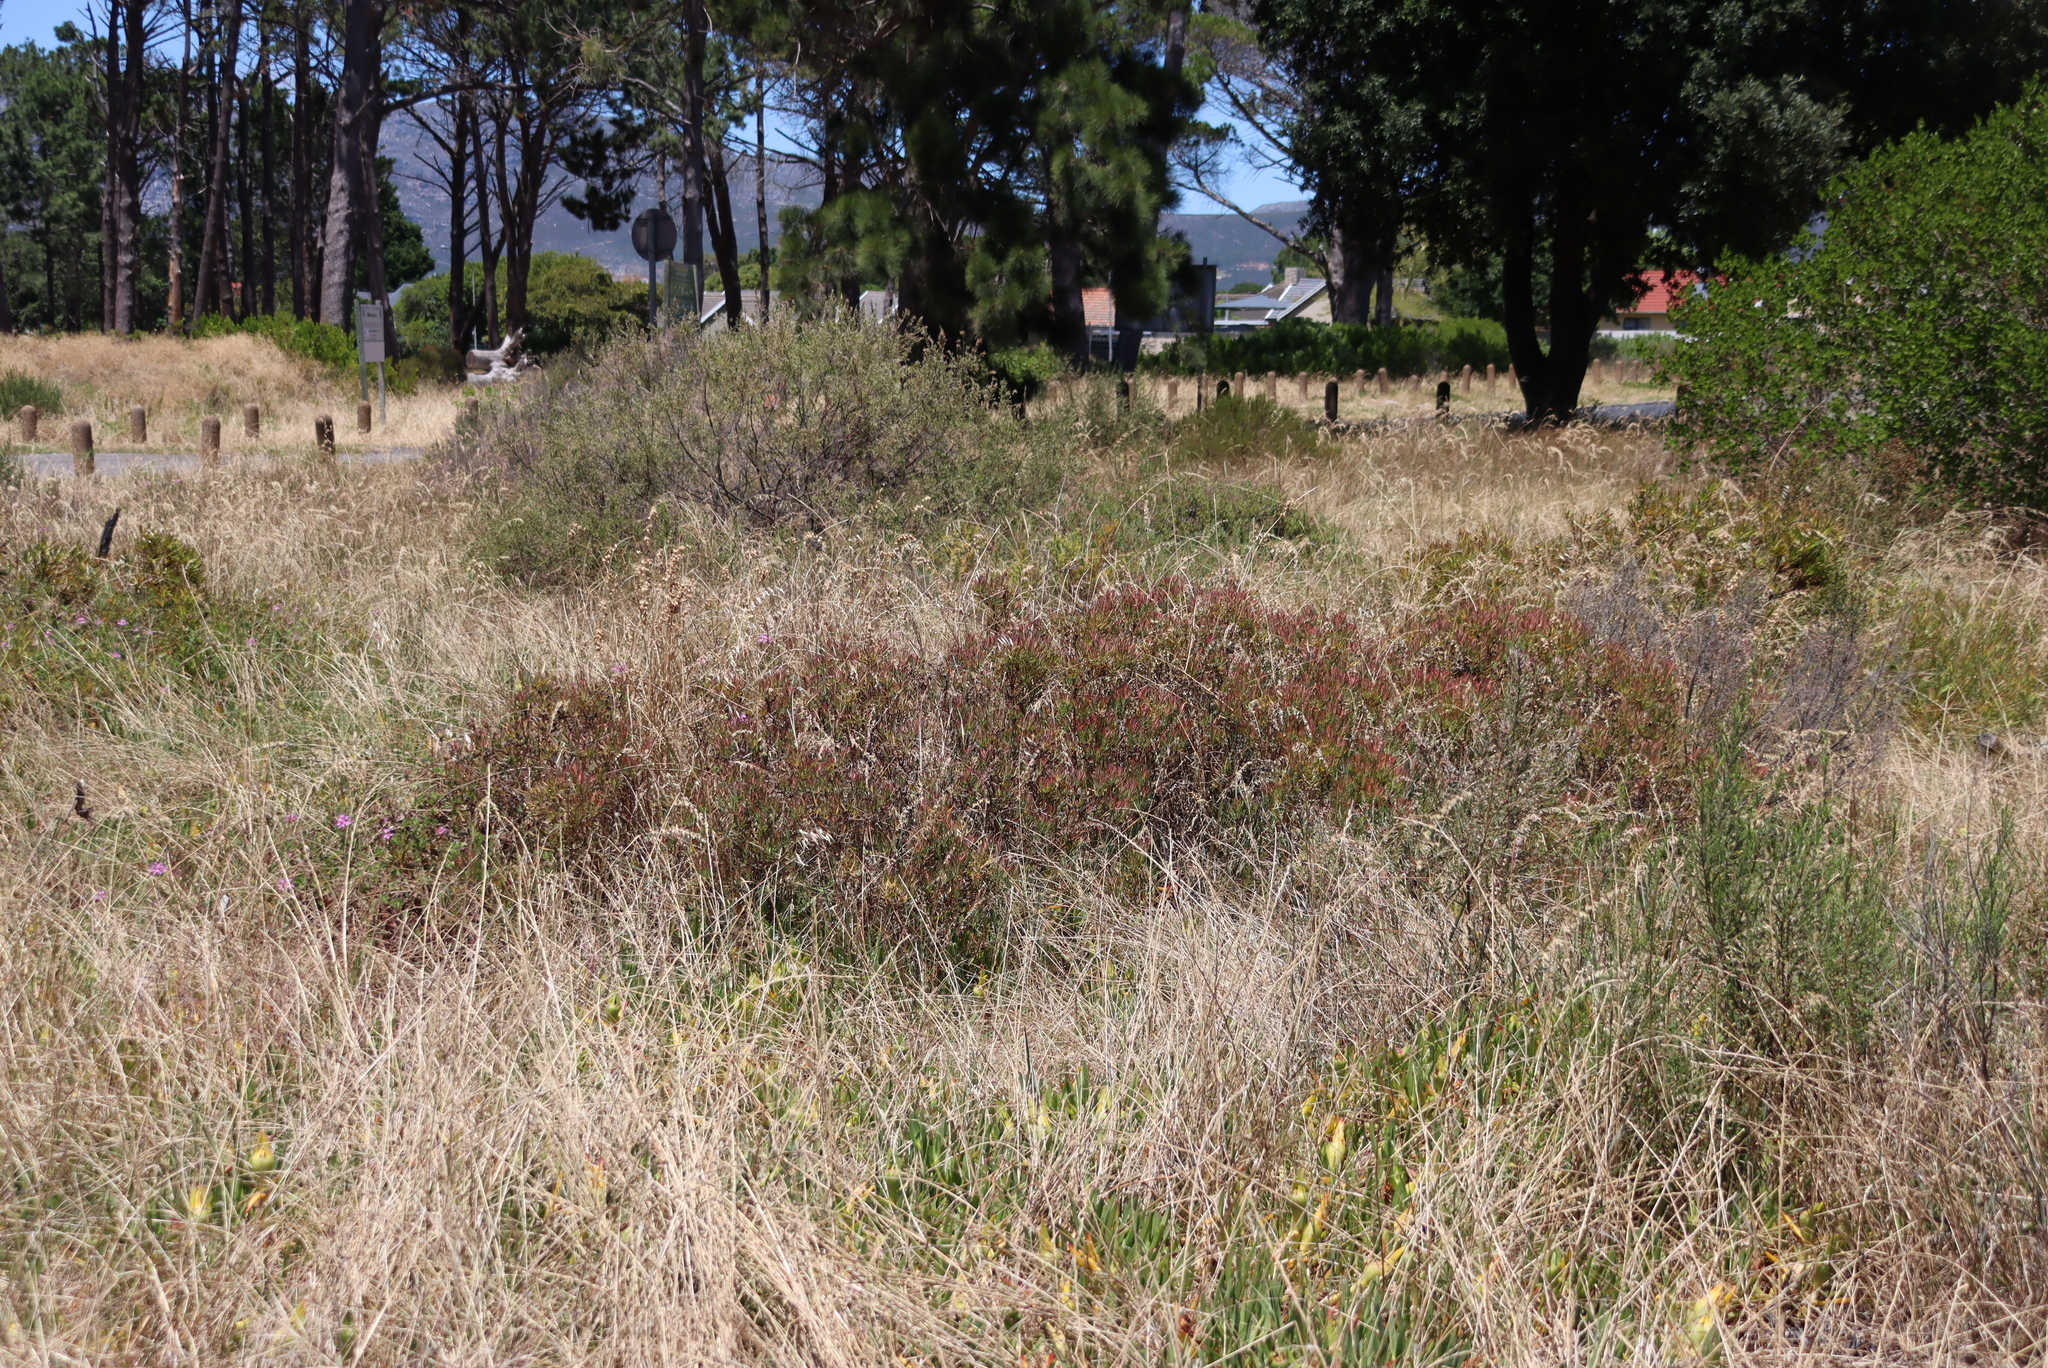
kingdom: Plantae
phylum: Tracheophyta
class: Magnoliopsida
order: Proteales
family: Proteaceae
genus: Leucadendron
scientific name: Leucadendron salignum
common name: Common sunshine conebush
